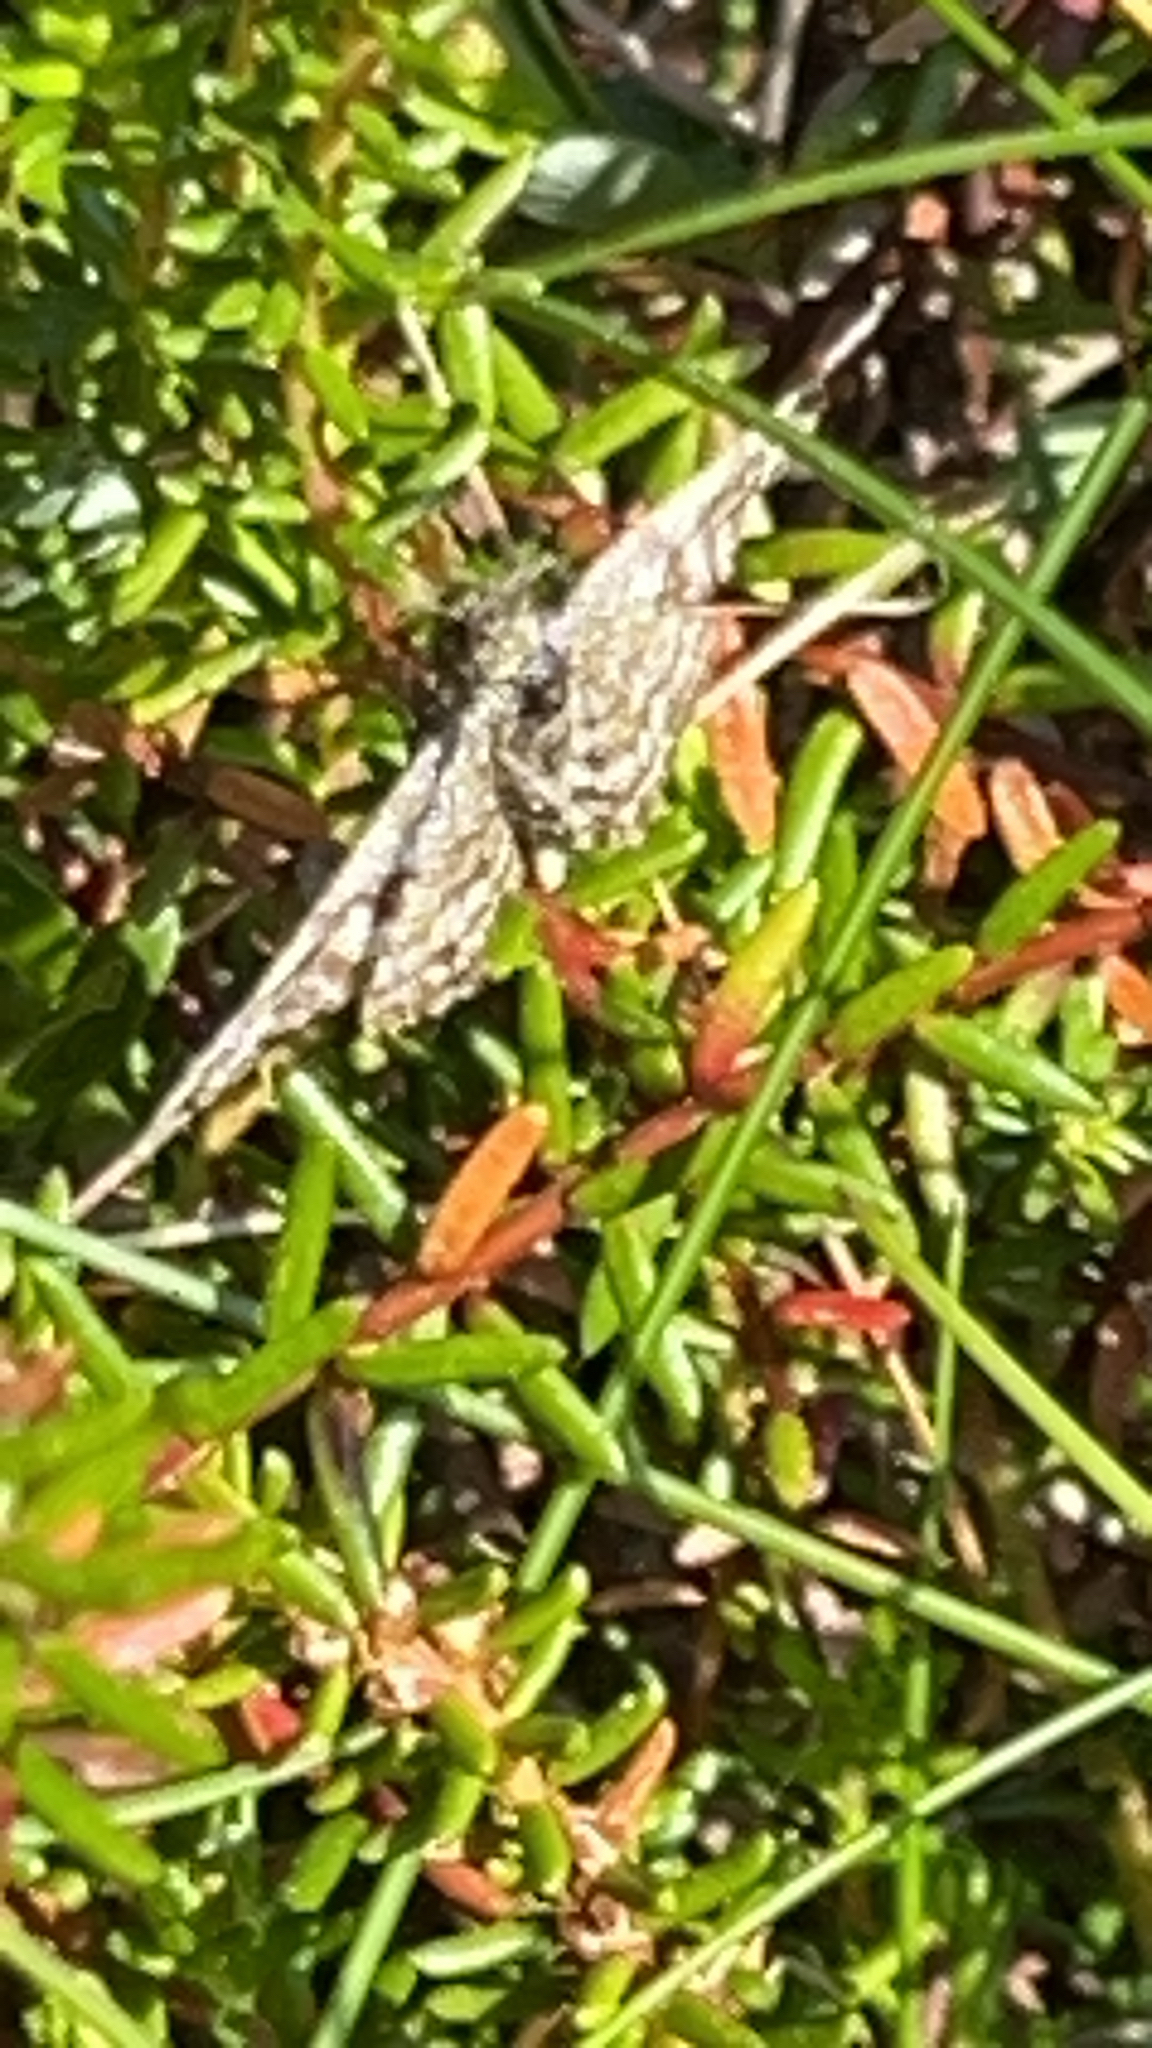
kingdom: Animalia
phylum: Arthropoda
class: Insecta
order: Lepidoptera
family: Geometridae
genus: Ematurga
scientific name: Ematurga atomaria
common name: Common heath
